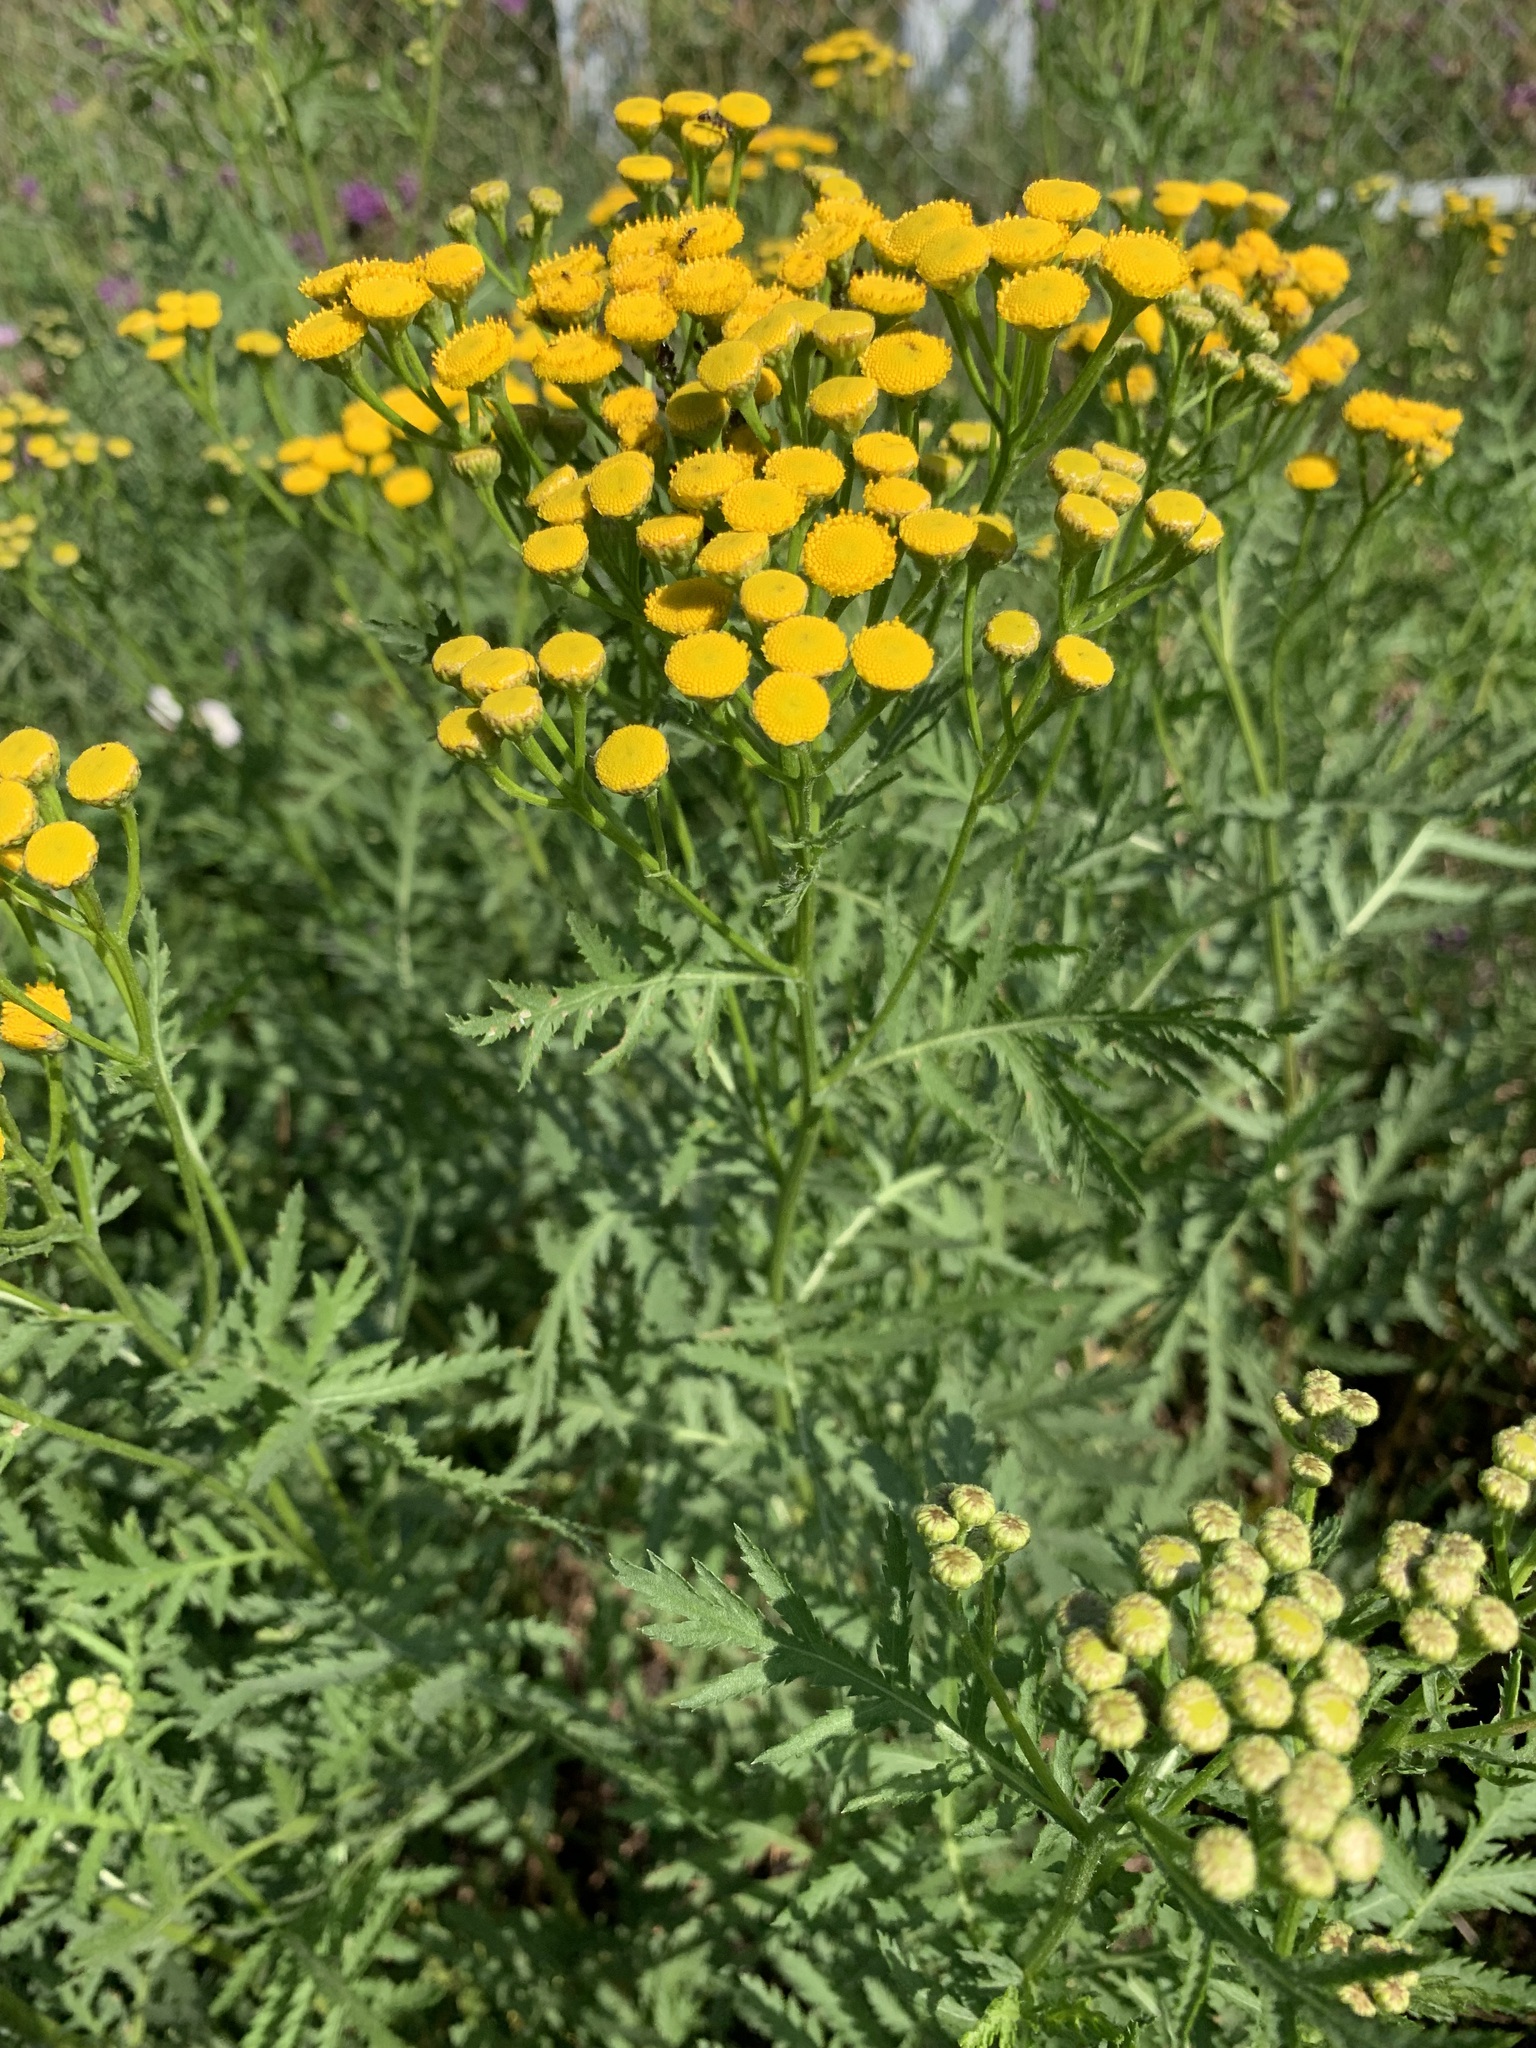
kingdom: Plantae
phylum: Tracheophyta
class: Magnoliopsida
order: Asterales
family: Asteraceae
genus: Tanacetum
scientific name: Tanacetum vulgare
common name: Common tansy
